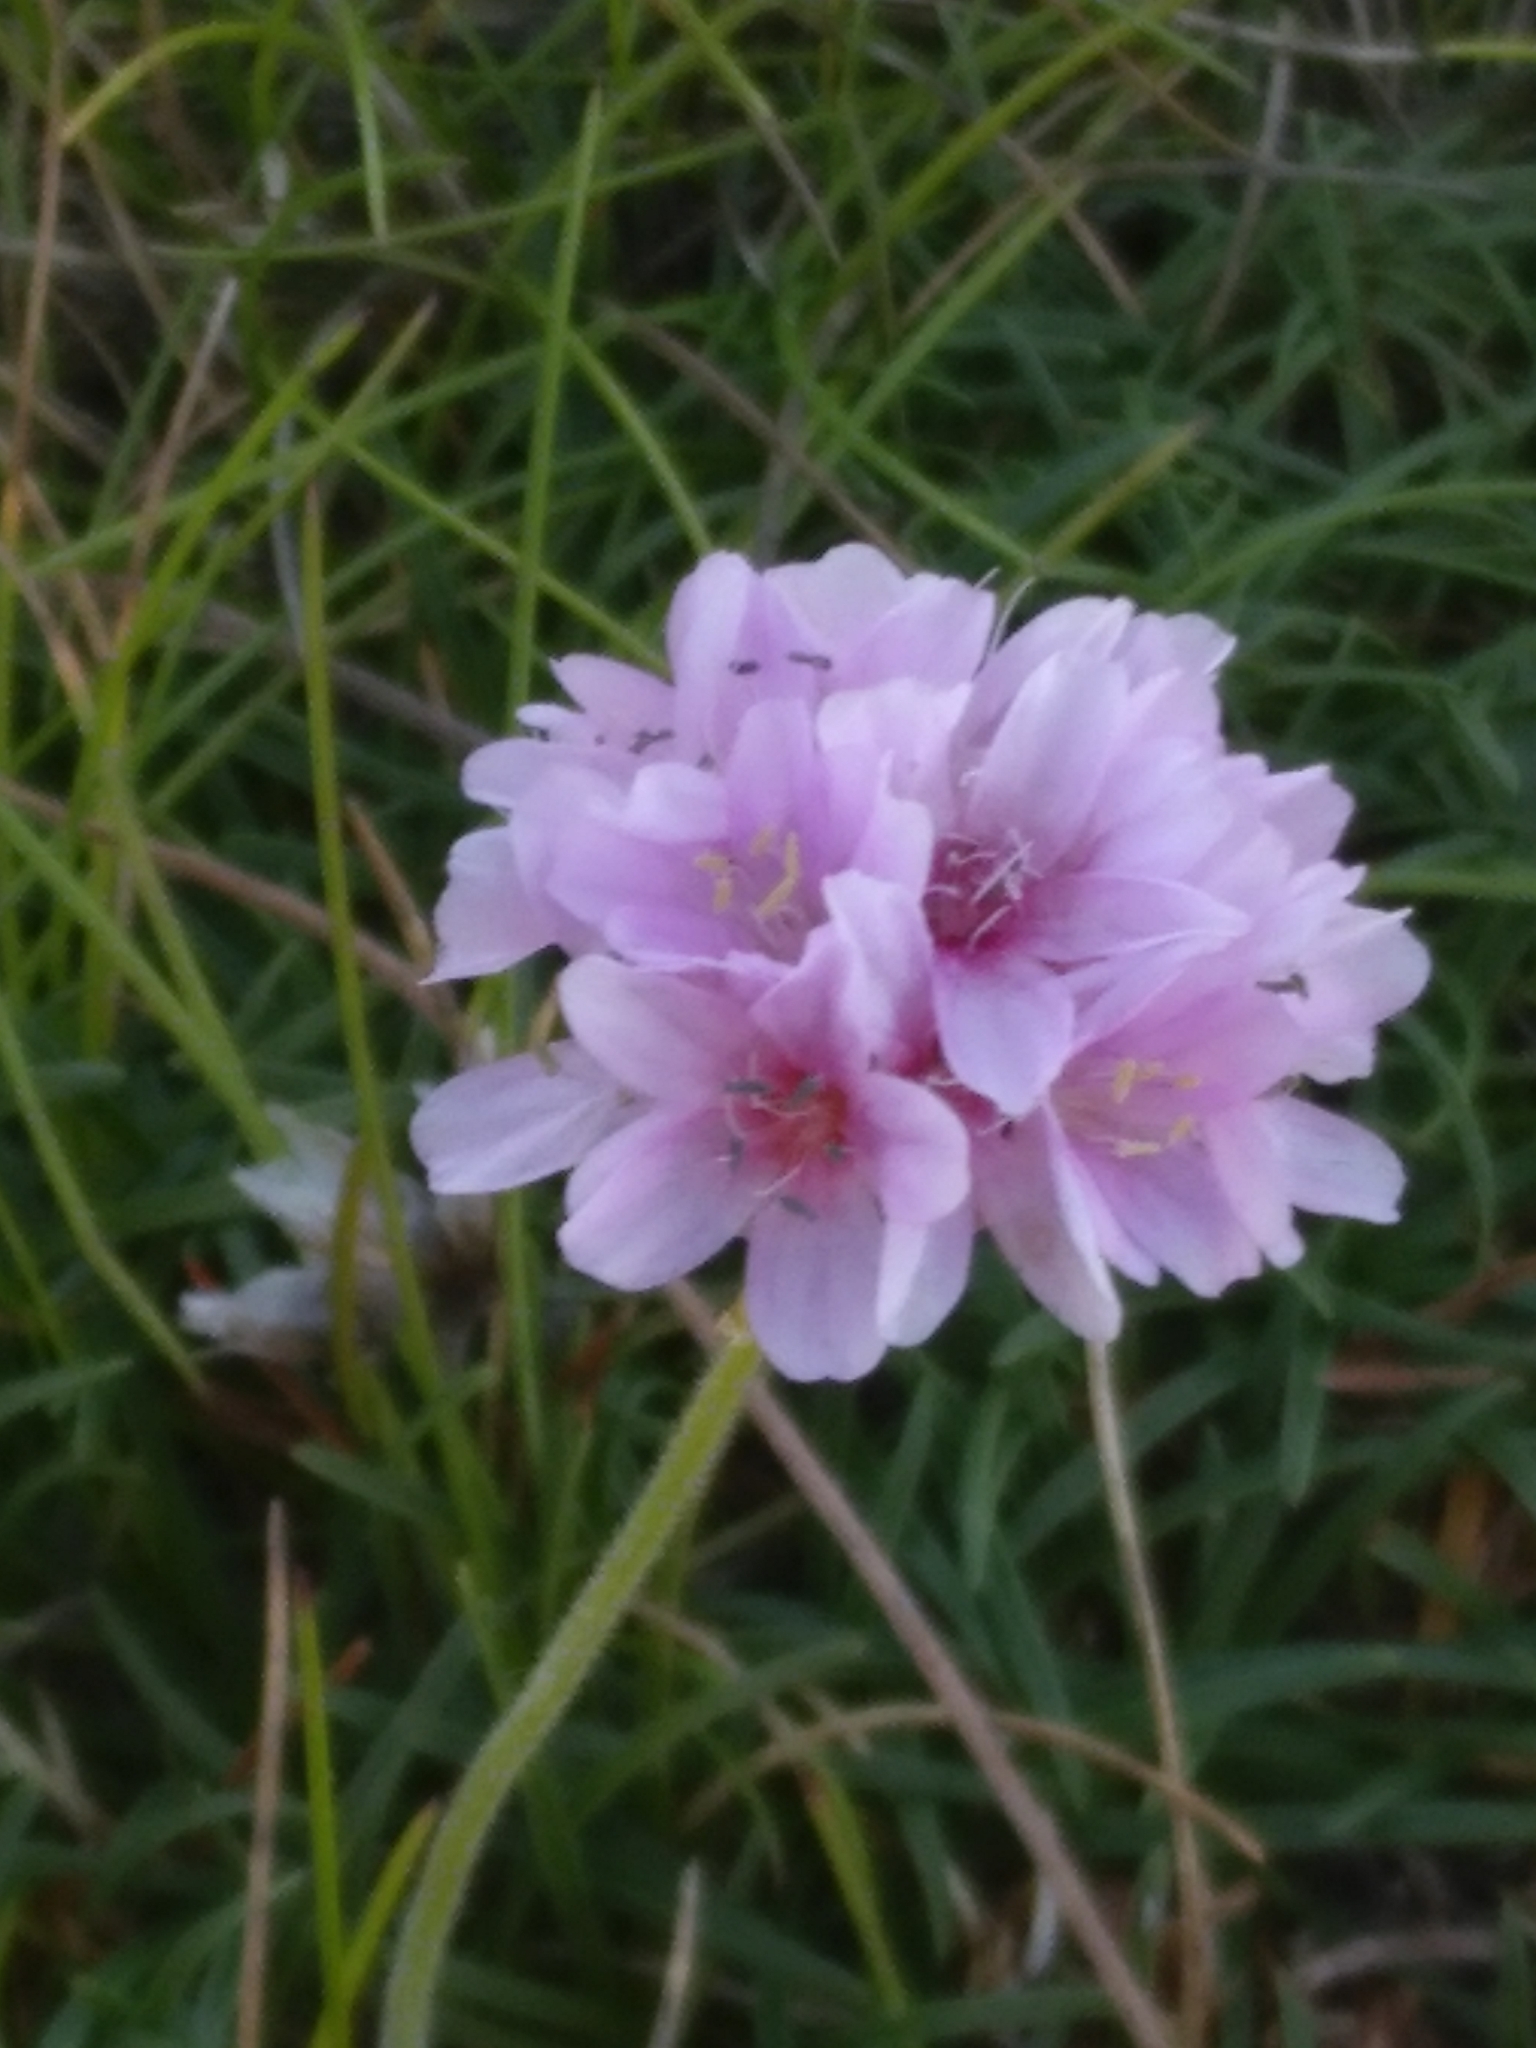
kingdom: Plantae
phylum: Tracheophyta
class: Magnoliopsida
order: Caryophyllales
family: Plumbaginaceae
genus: Armeria
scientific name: Armeria maritima
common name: Thrift
